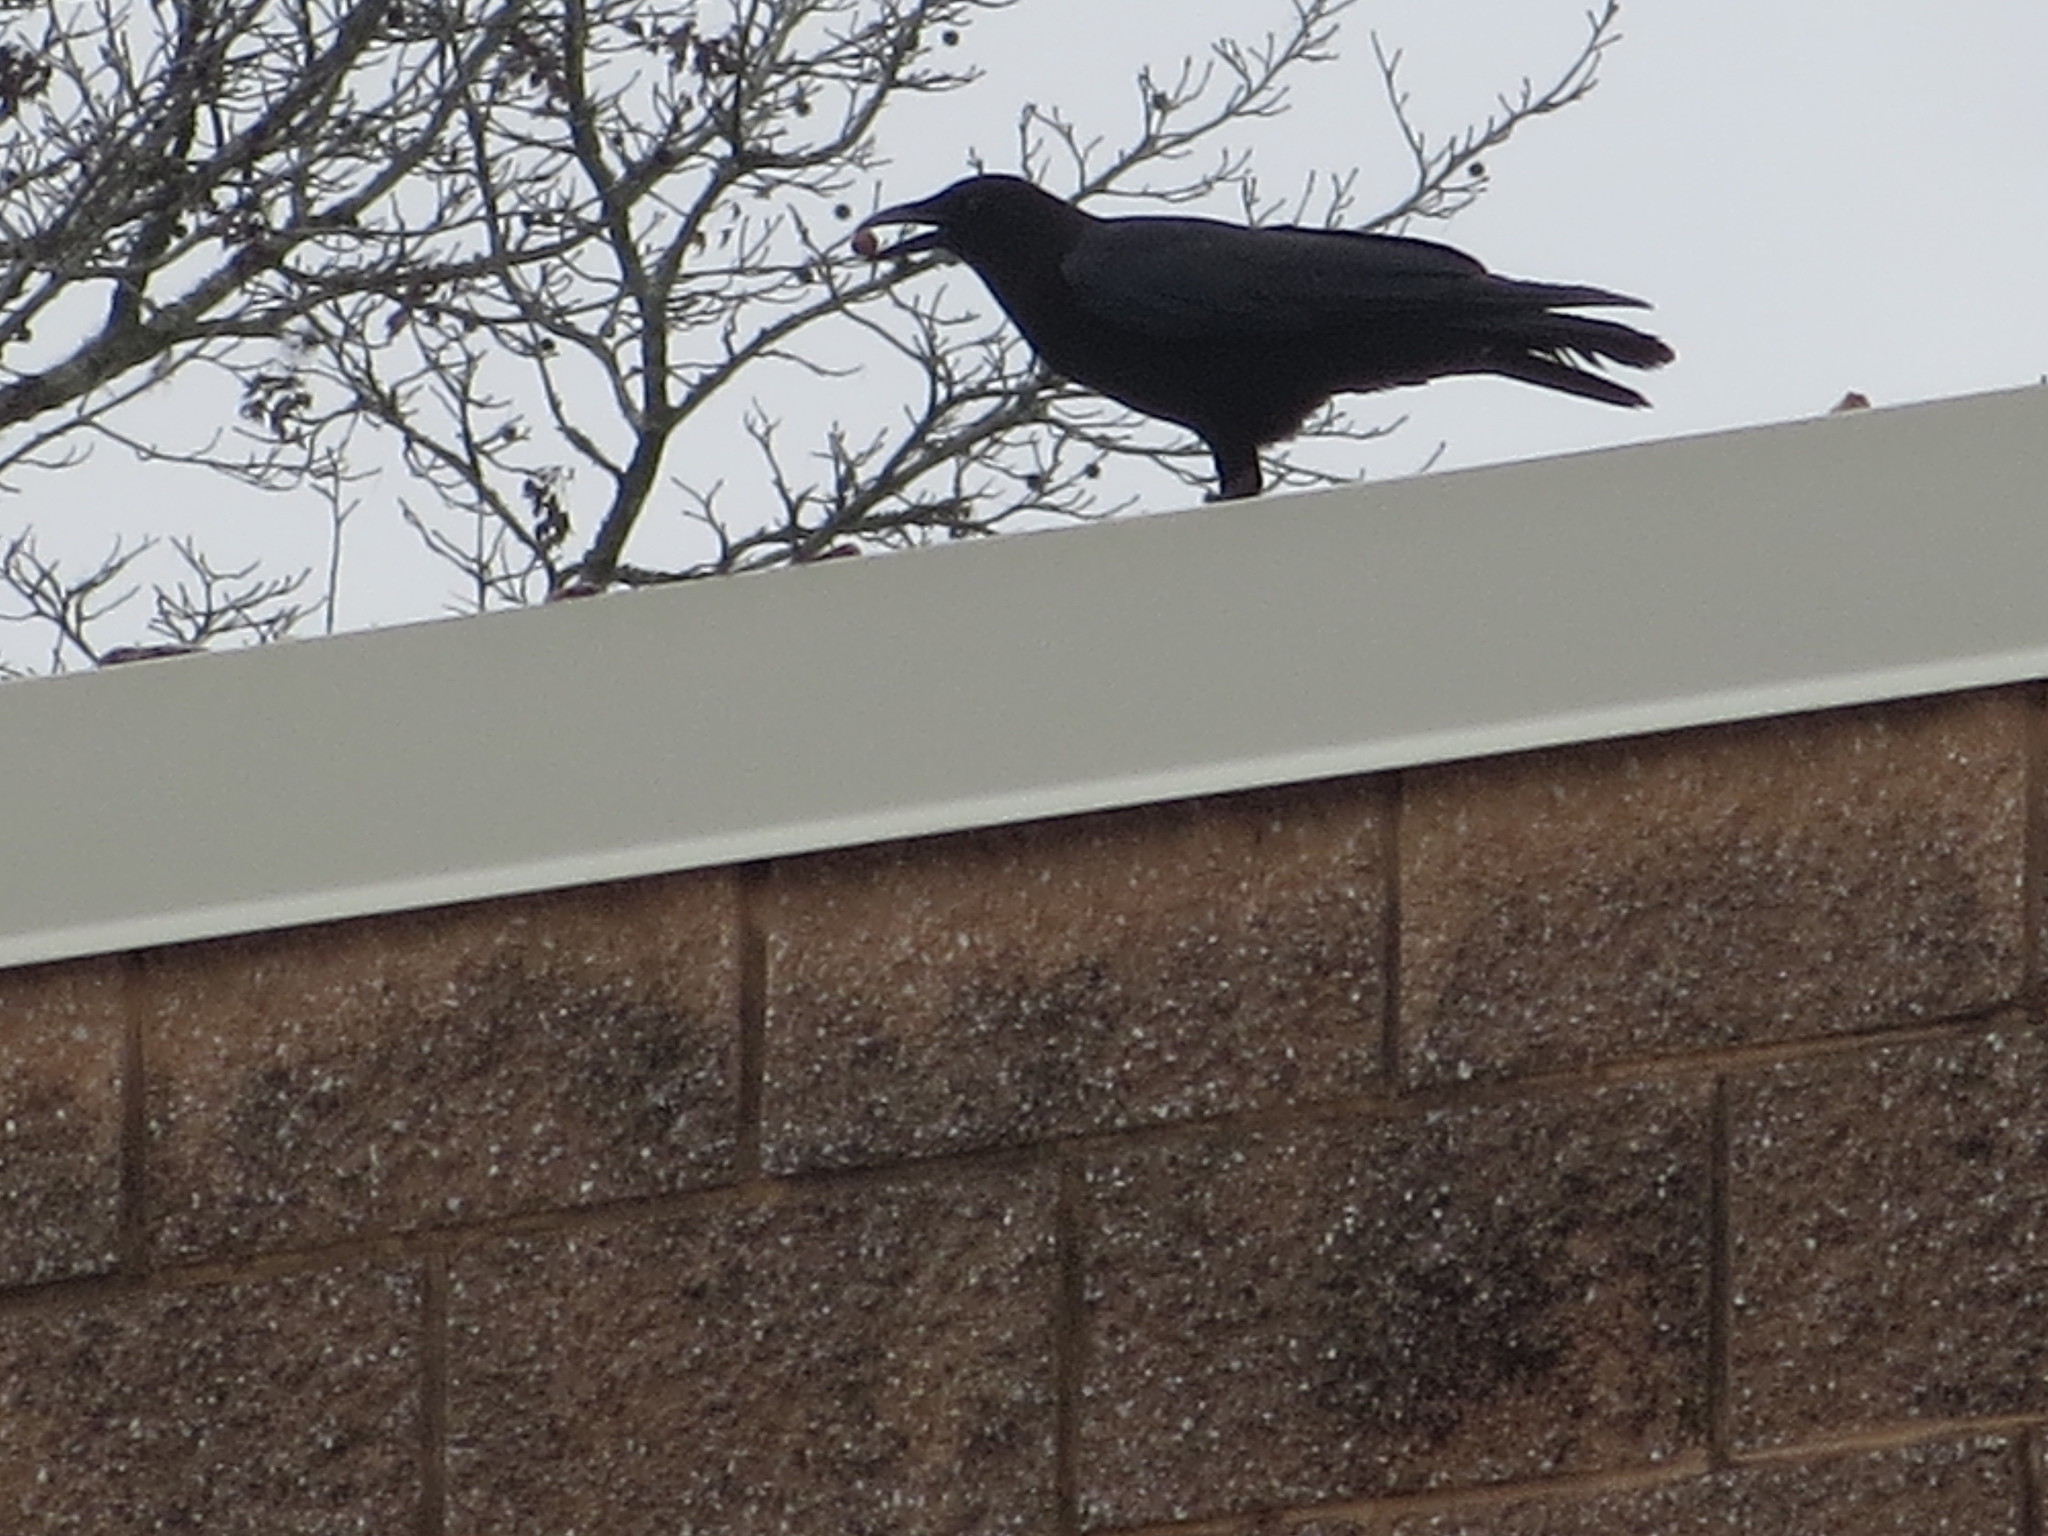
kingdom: Animalia
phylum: Chordata
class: Aves
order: Passeriformes
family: Corvidae
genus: Corvus
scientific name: Corvus brachyrhynchos
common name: American crow
